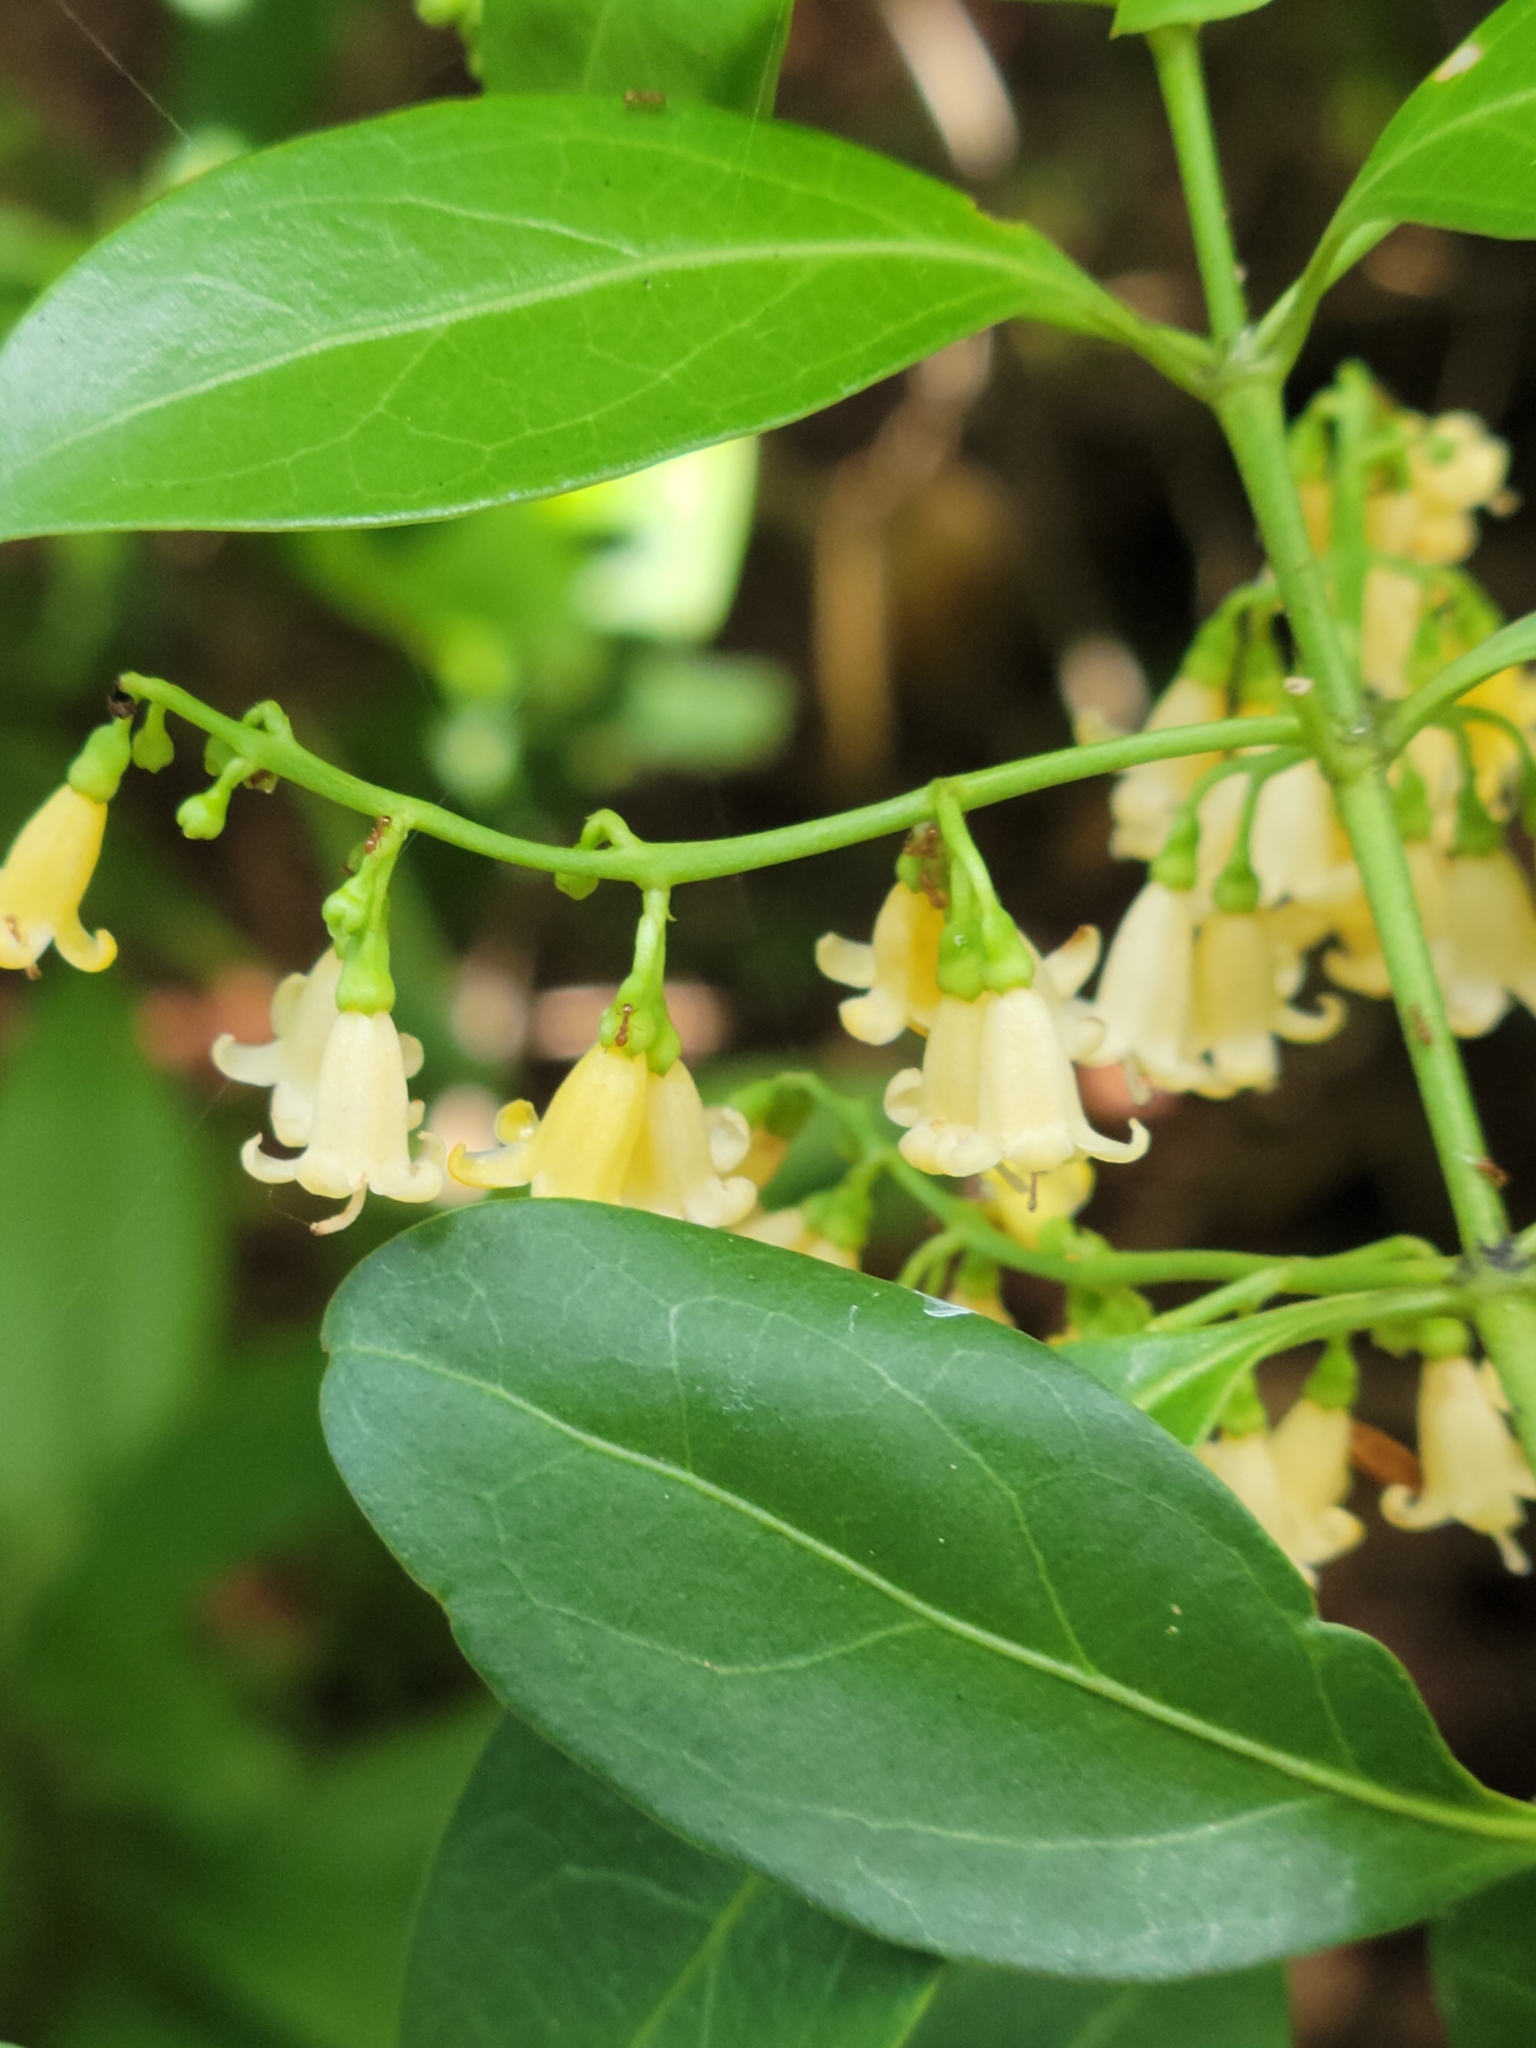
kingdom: Plantae
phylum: Tracheophyta
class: Magnoliopsida
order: Gentianales
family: Rubiaceae
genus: Chiococca
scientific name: Chiococca alba
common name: Snowberry
